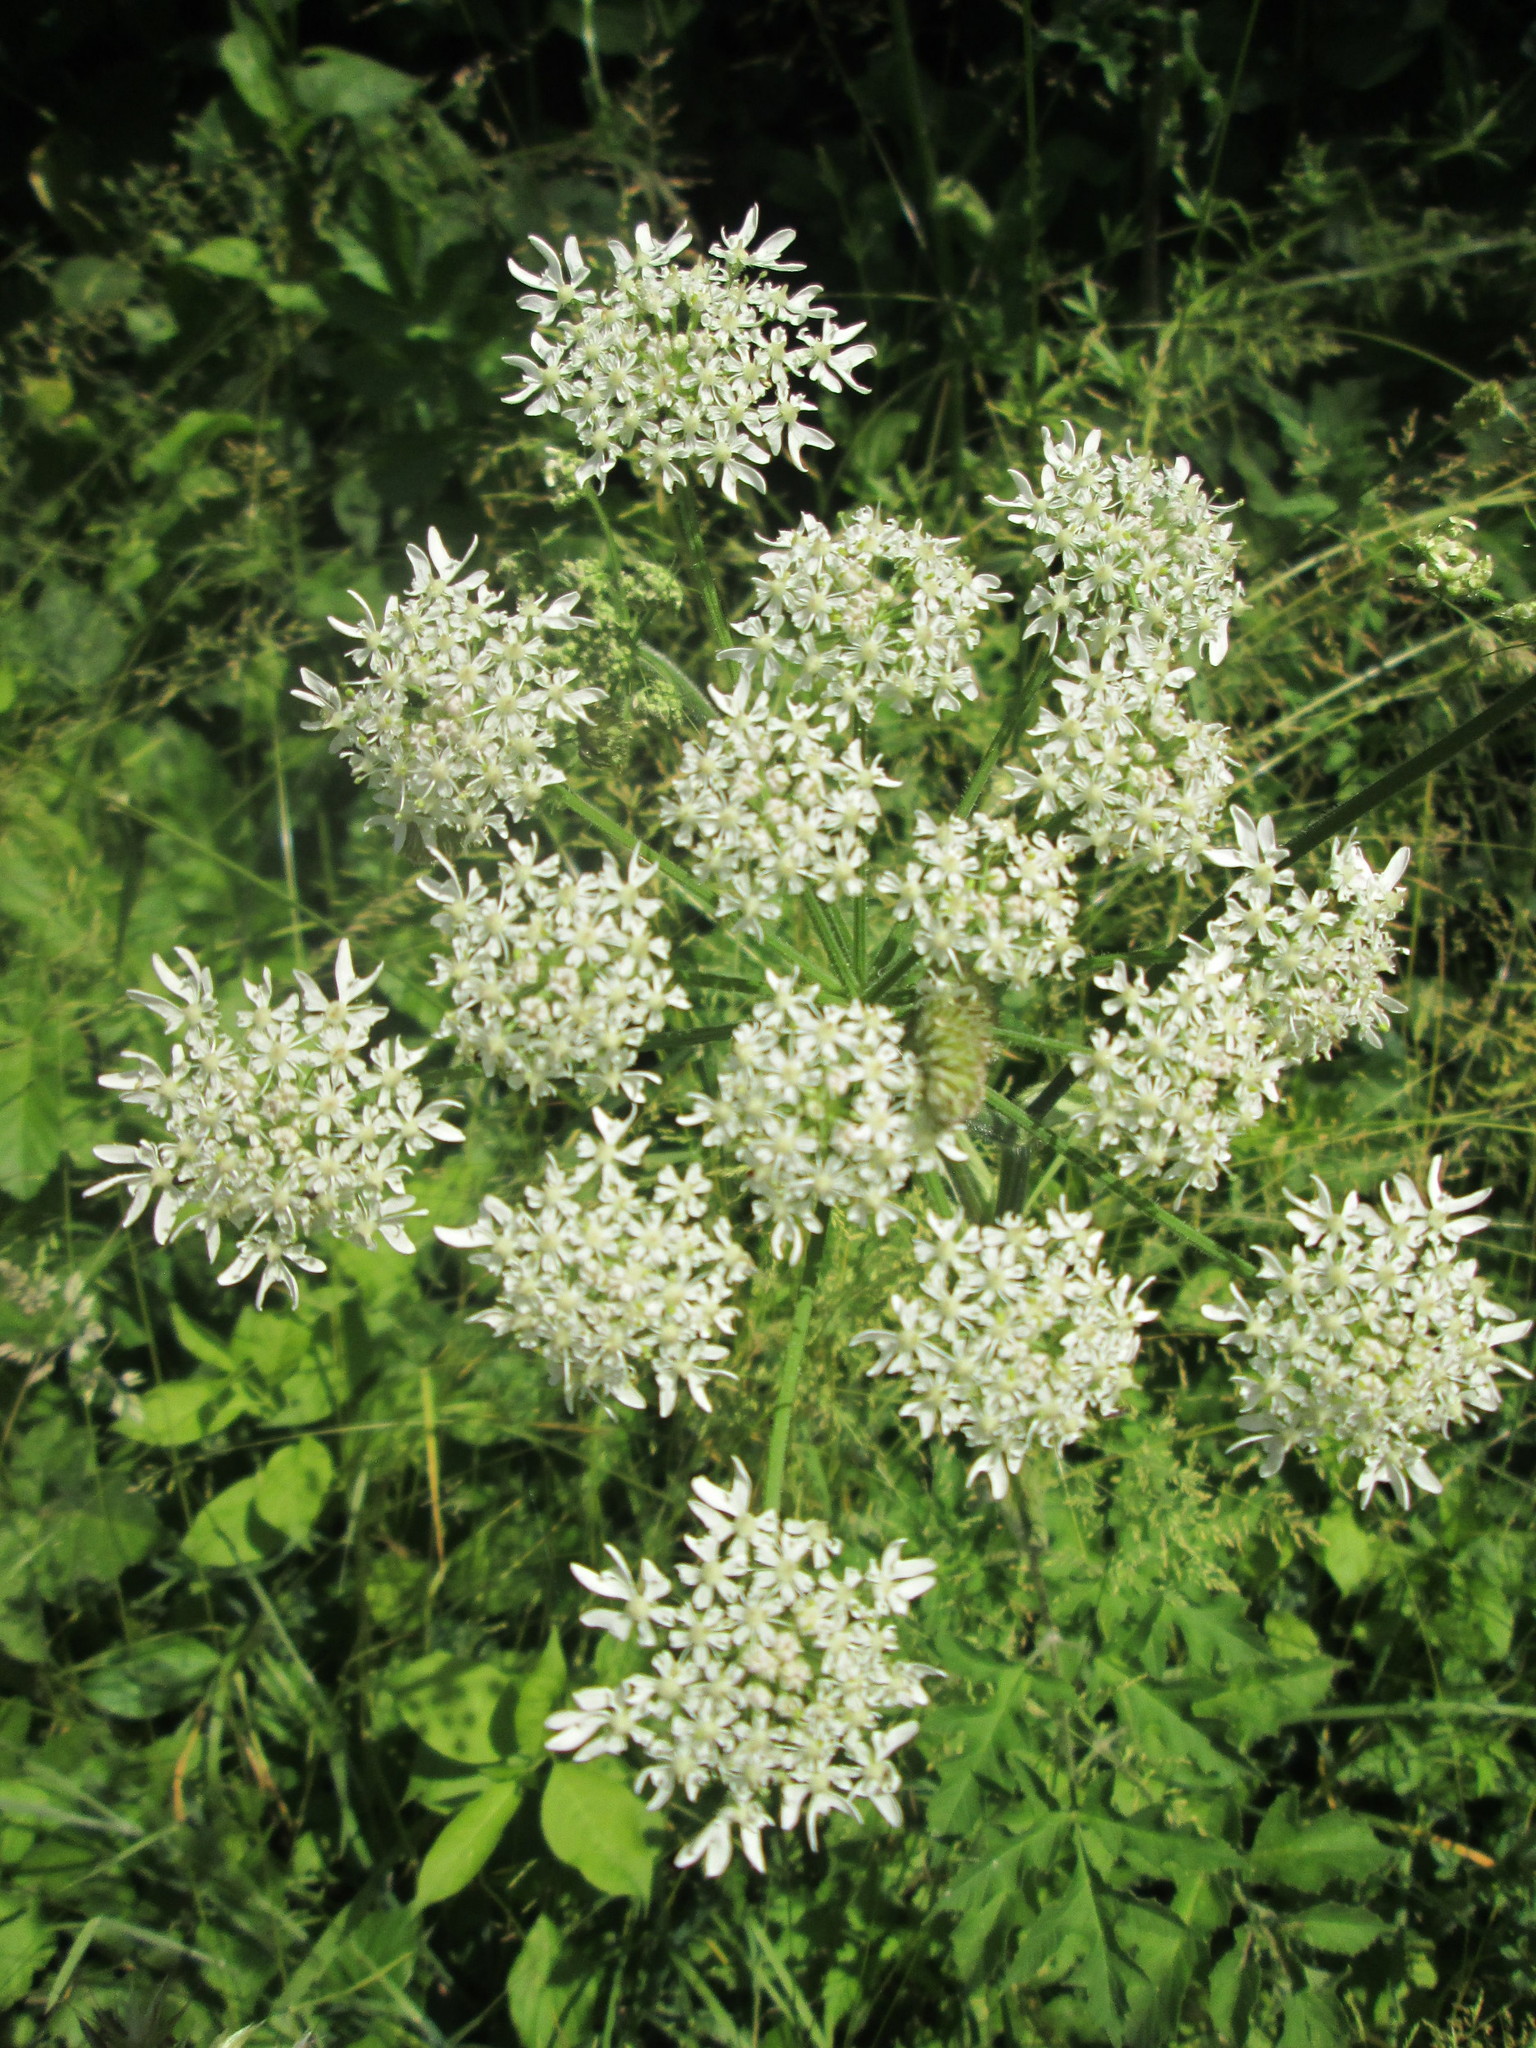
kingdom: Plantae
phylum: Tracheophyta
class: Magnoliopsida
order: Apiales
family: Apiaceae
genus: Heracleum
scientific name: Heracleum sphondylium
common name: Hogweed
